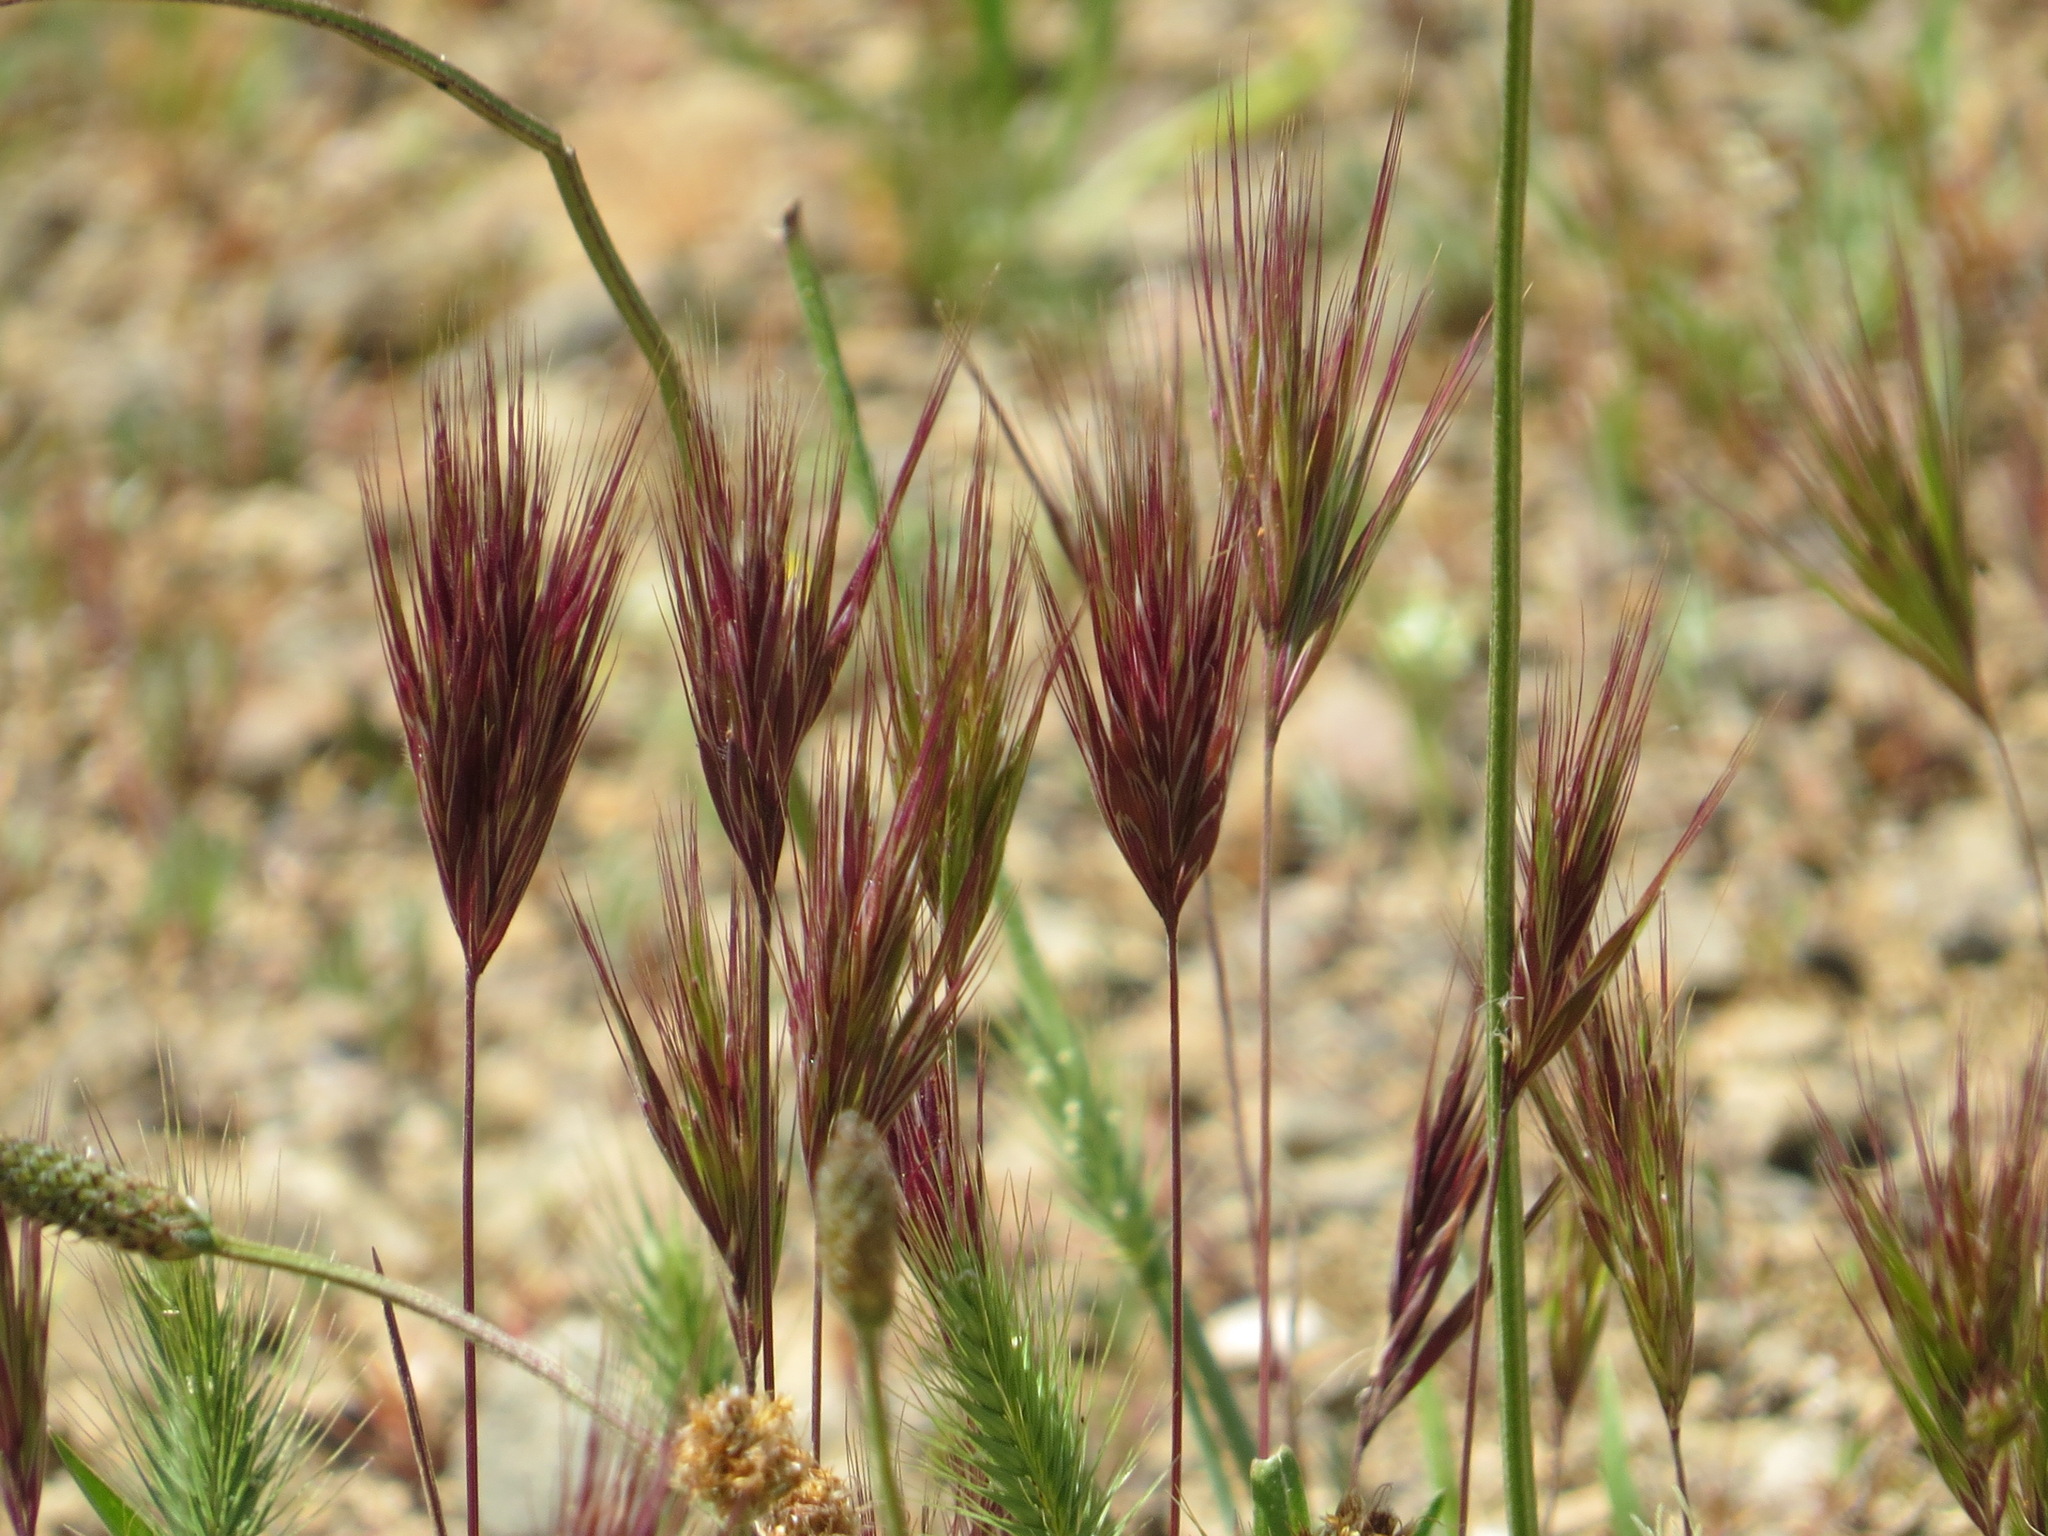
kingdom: Plantae
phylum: Tracheophyta
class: Liliopsida
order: Poales
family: Poaceae
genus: Bromus
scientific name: Bromus rubens
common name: Red brome
